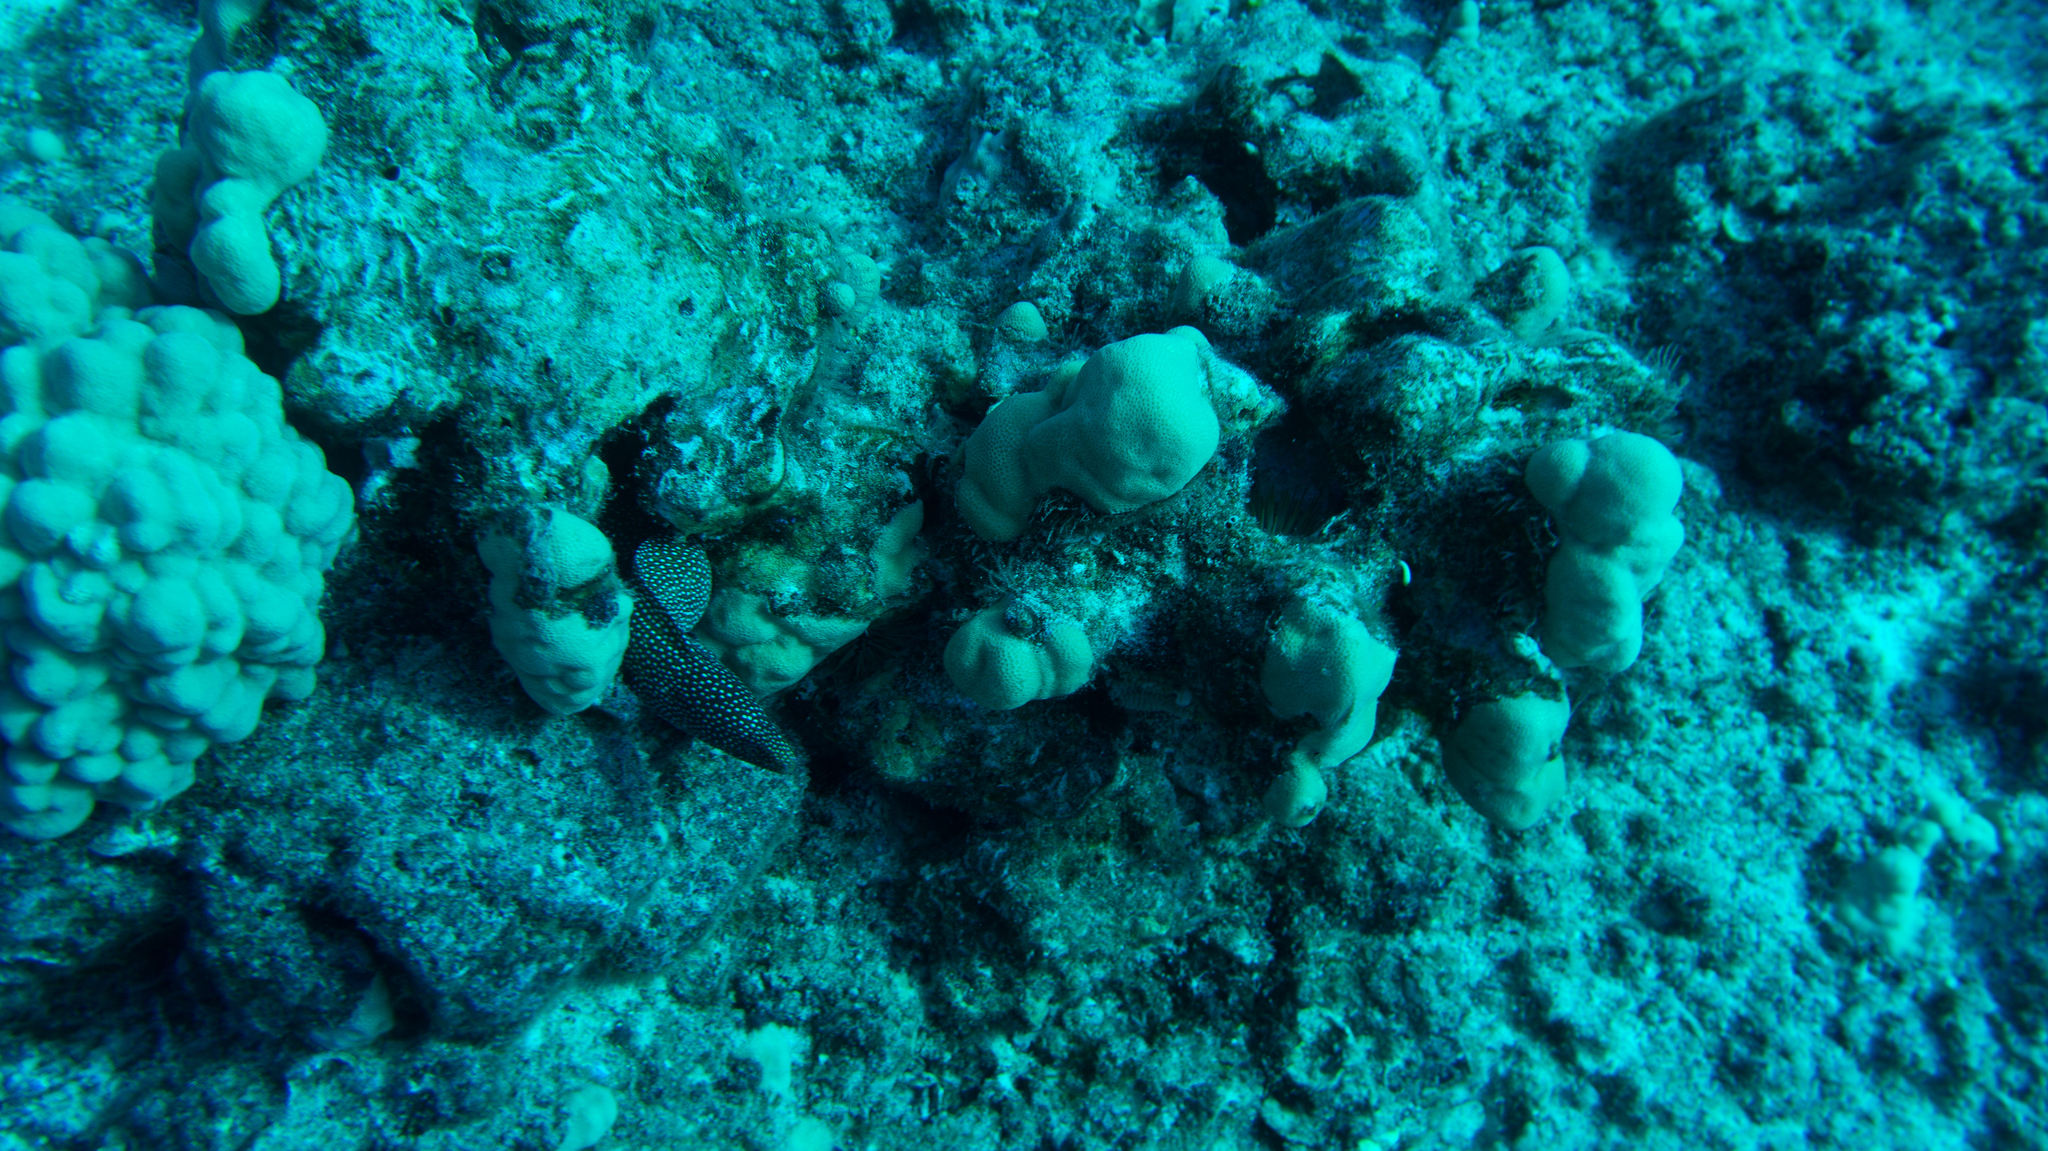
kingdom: Animalia
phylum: Chordata
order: Anguilliformes
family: Muraenidae
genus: Gymnothorax
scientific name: Gymnothorax meleagris
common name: Guineafowl moray
